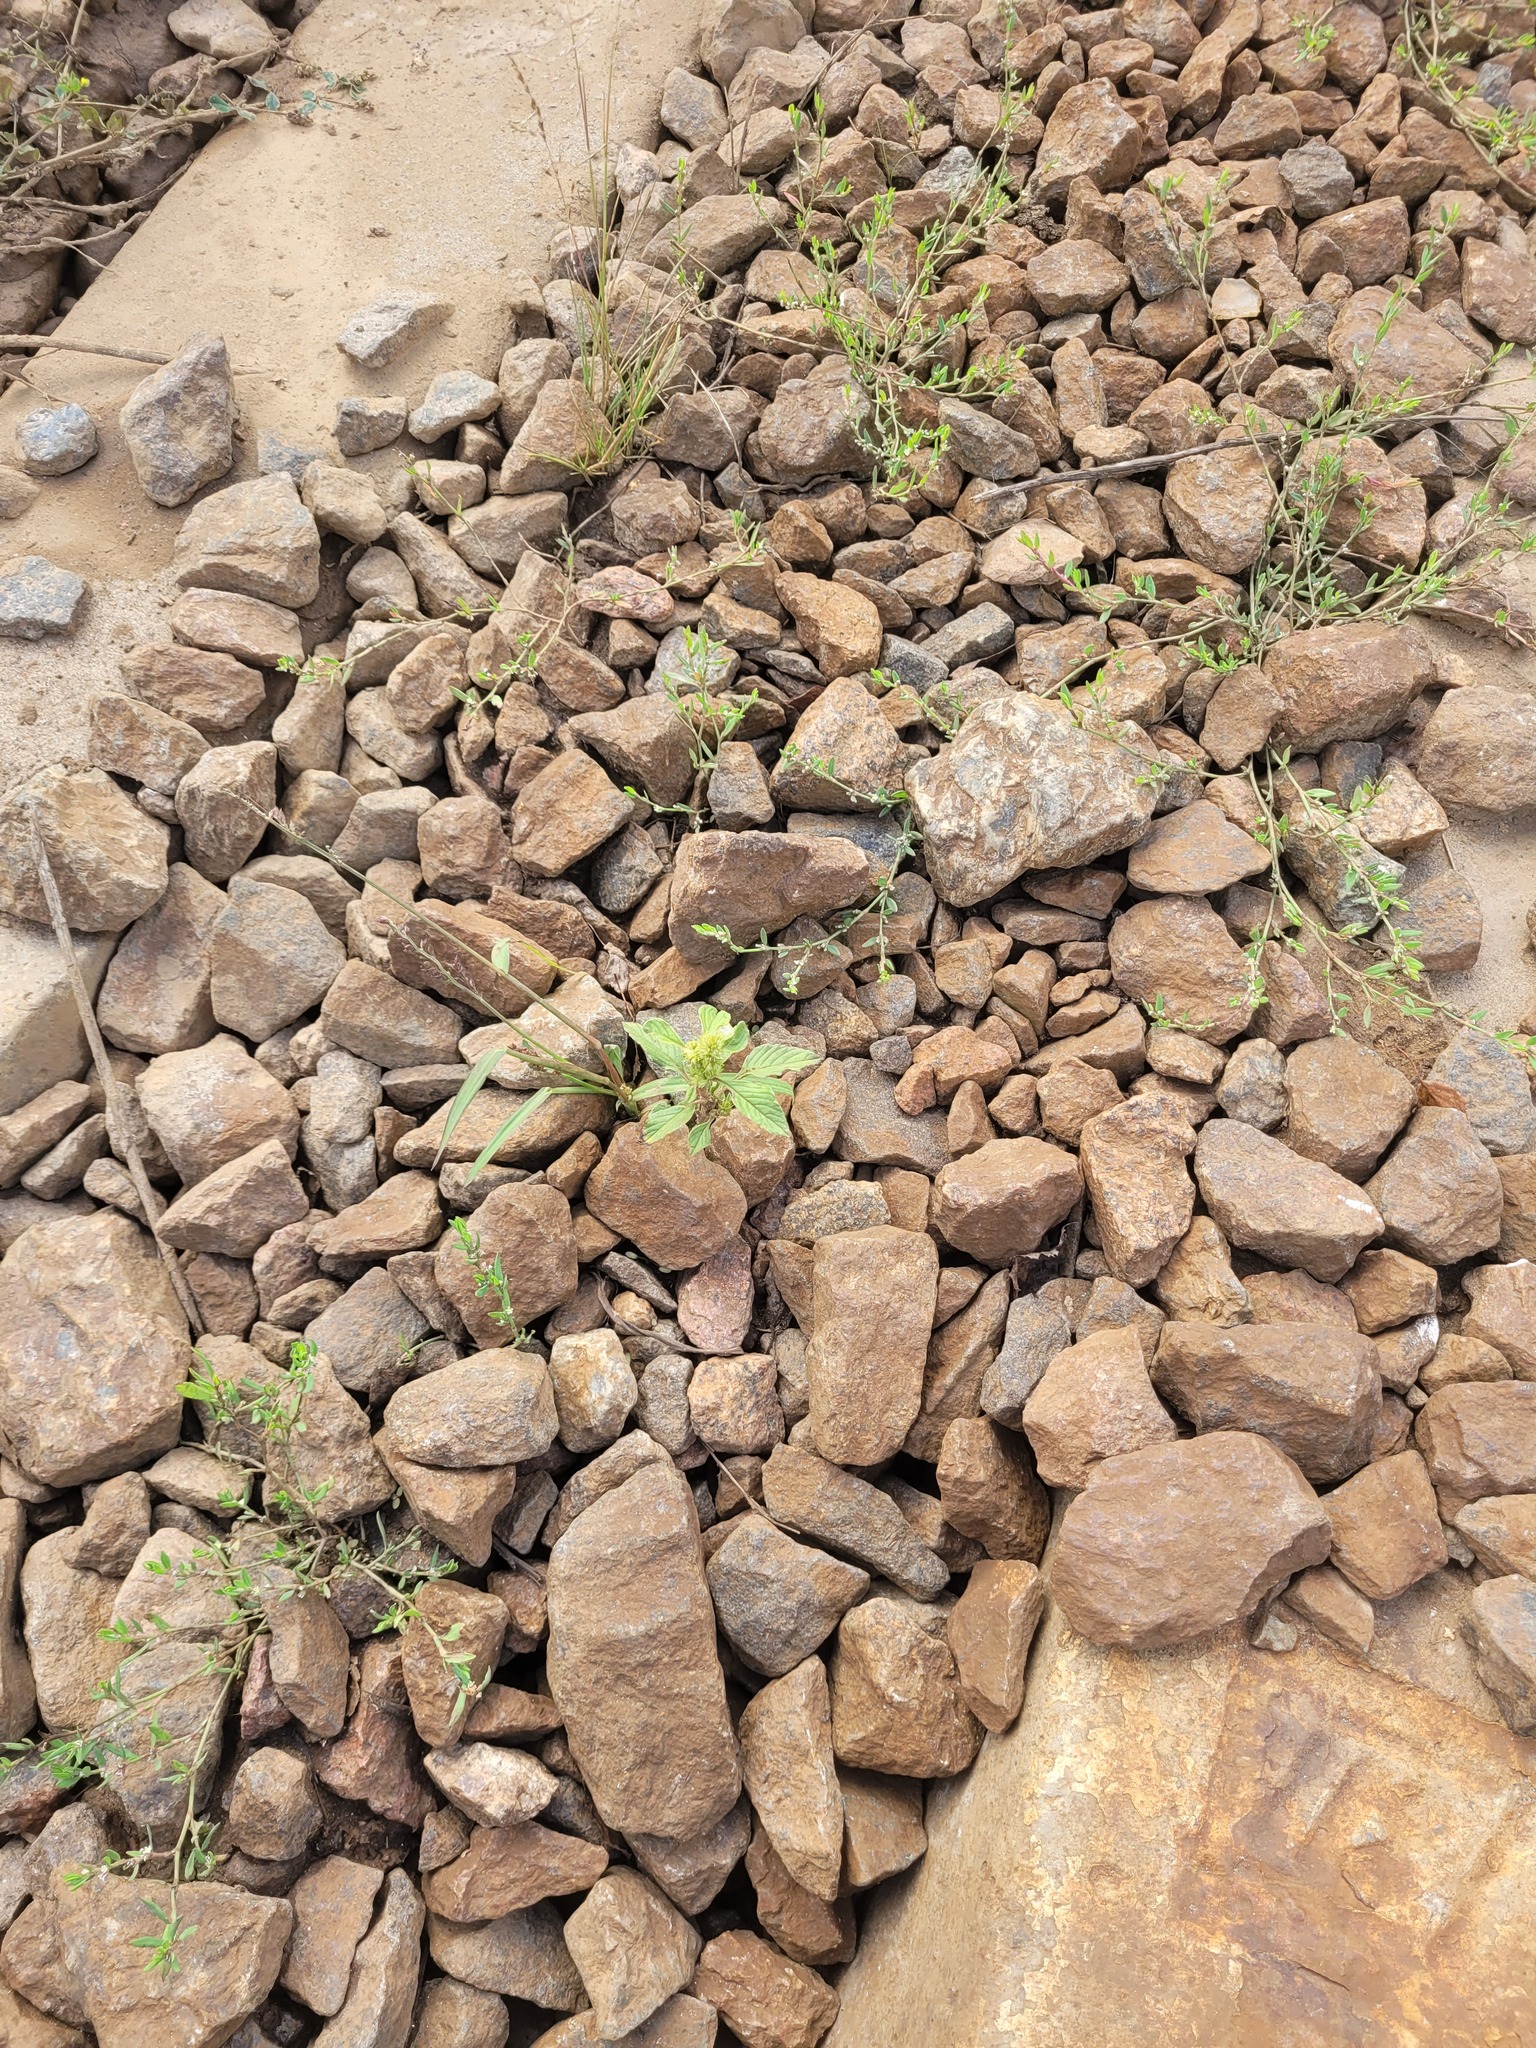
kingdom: Plantae
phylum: Tracheophyta
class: Magnoliopsida
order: Caryophyllales
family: Amaranthaceae
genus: Amaranthus
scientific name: Amaranthus retroflexus
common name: Redroot amaranth
